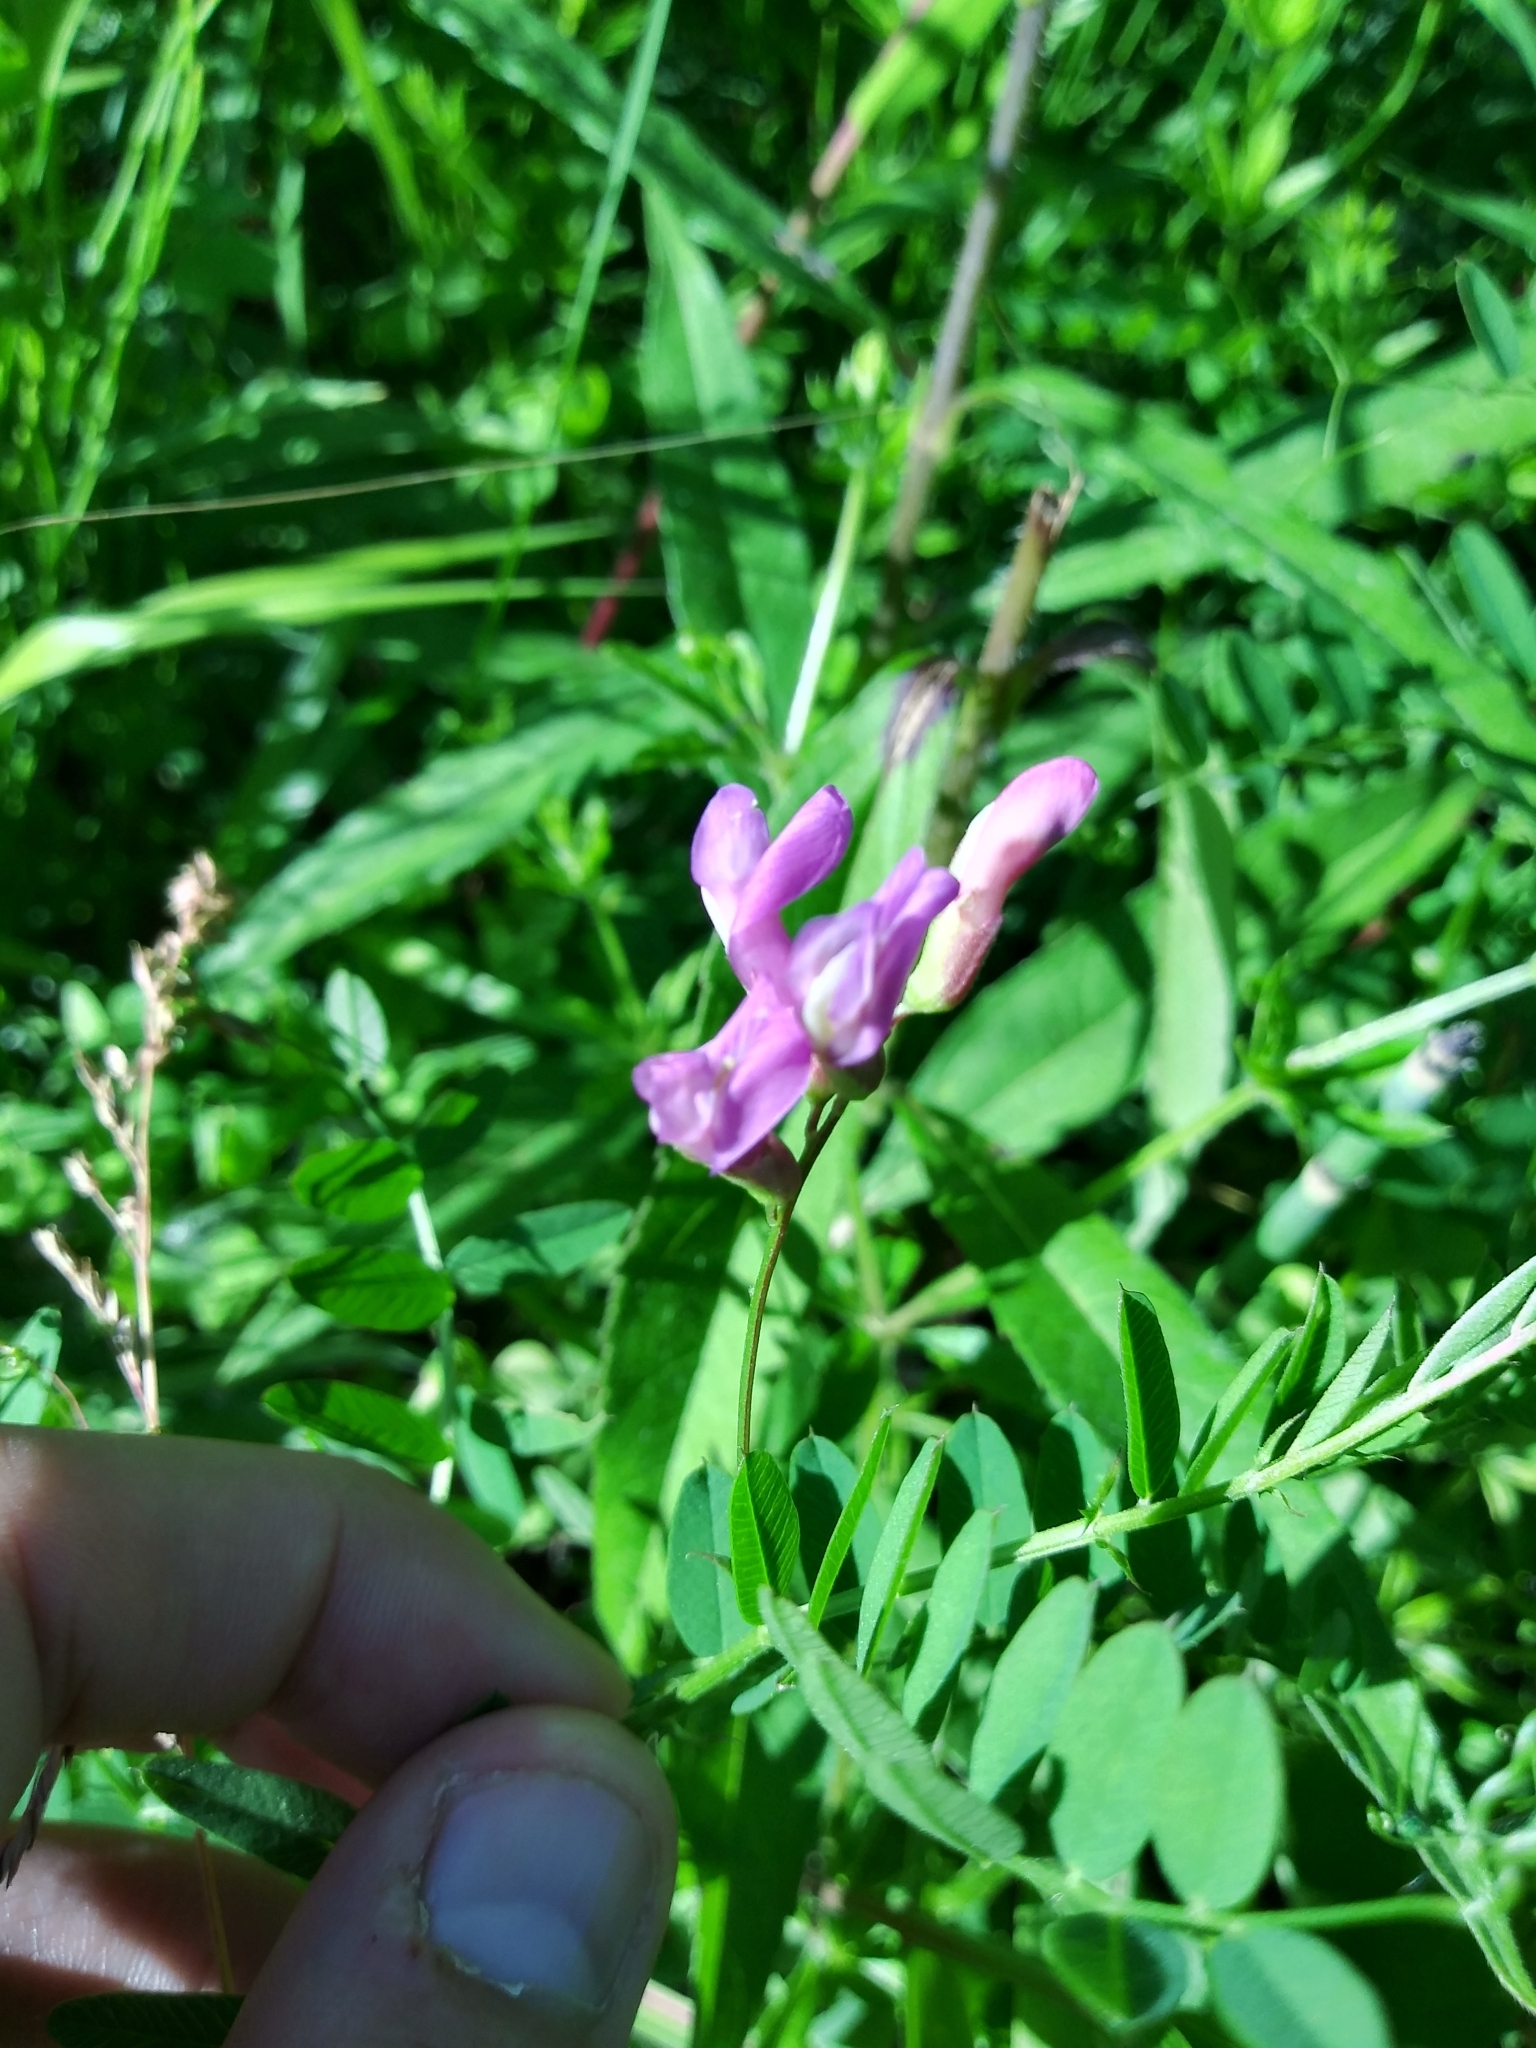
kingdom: Plantae
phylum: Tracheophyta
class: Magnoliopsida
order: Fabales
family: Fabaceae
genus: Vicia
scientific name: Vicia americana
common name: American vetch
